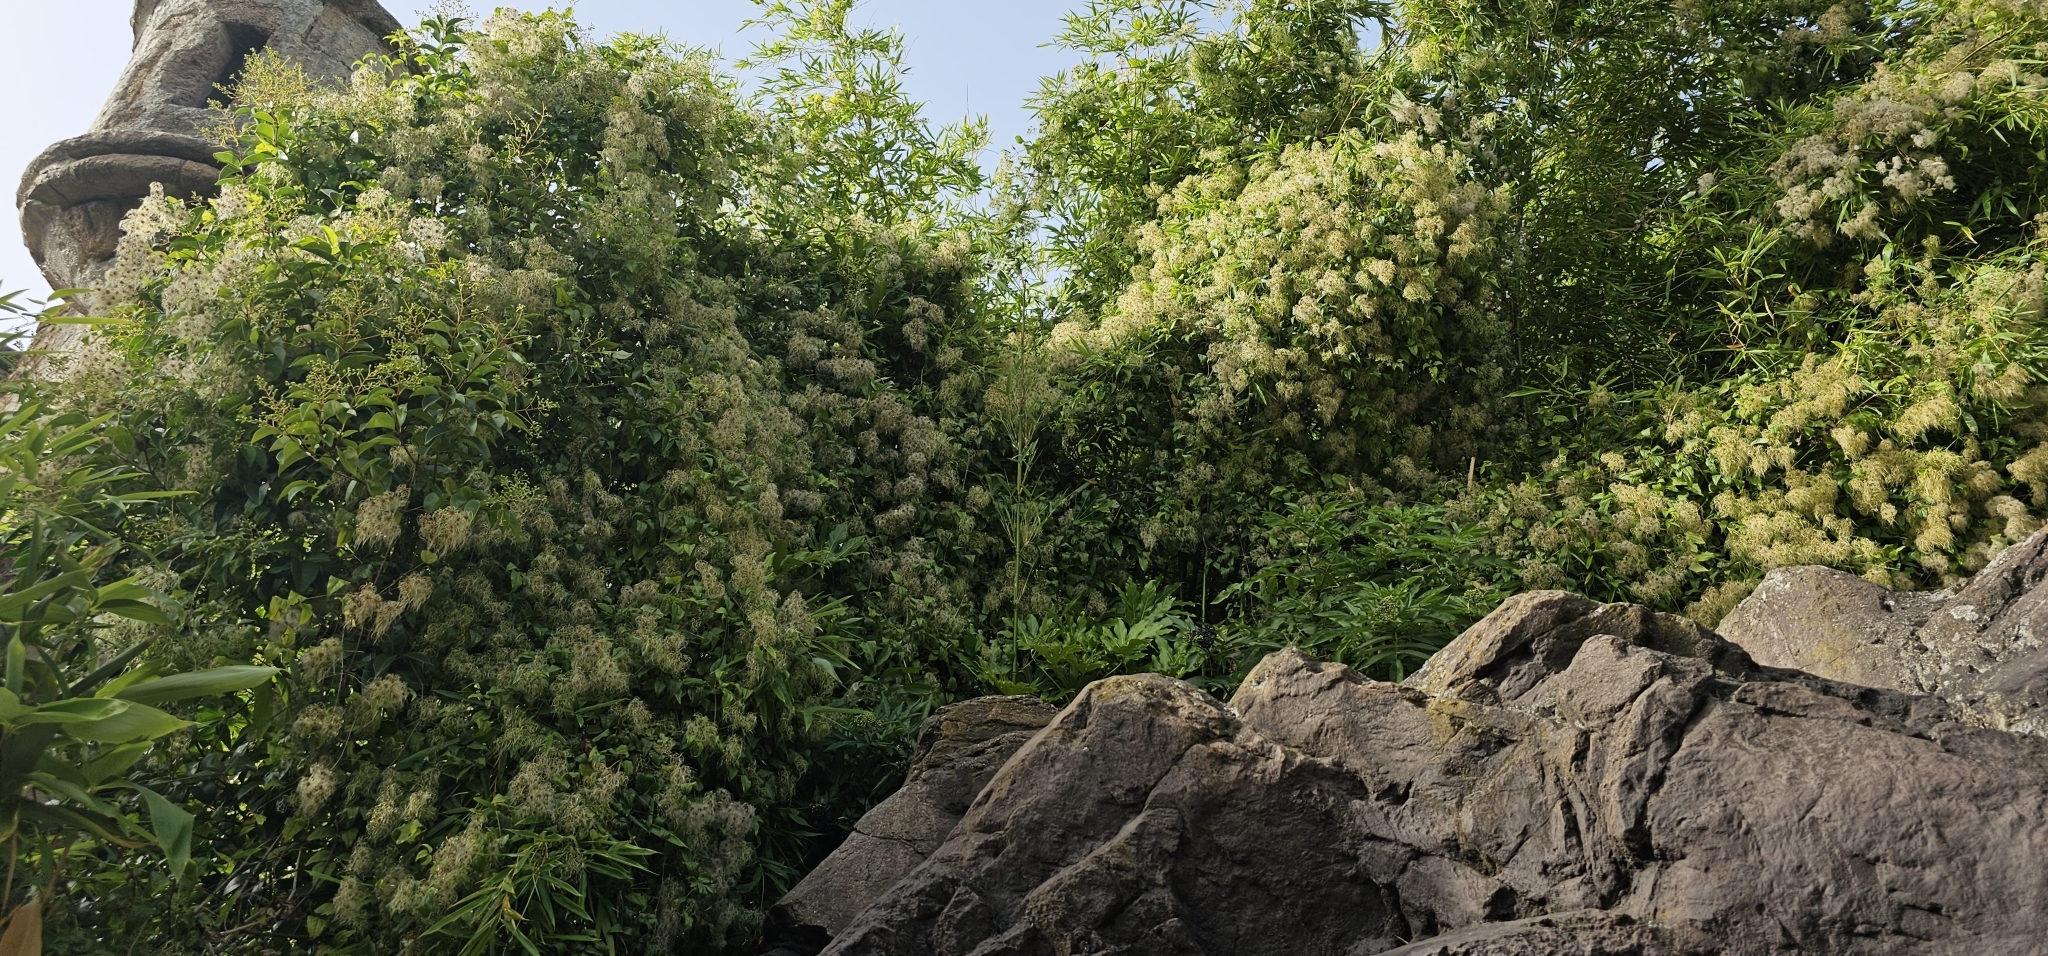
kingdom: Plantae
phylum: Tracheophyta
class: Magnoliopsida
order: Ranunculales
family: Ranunculaceae
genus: Clematis
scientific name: Clematis vitalba
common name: Evergreen clematis
